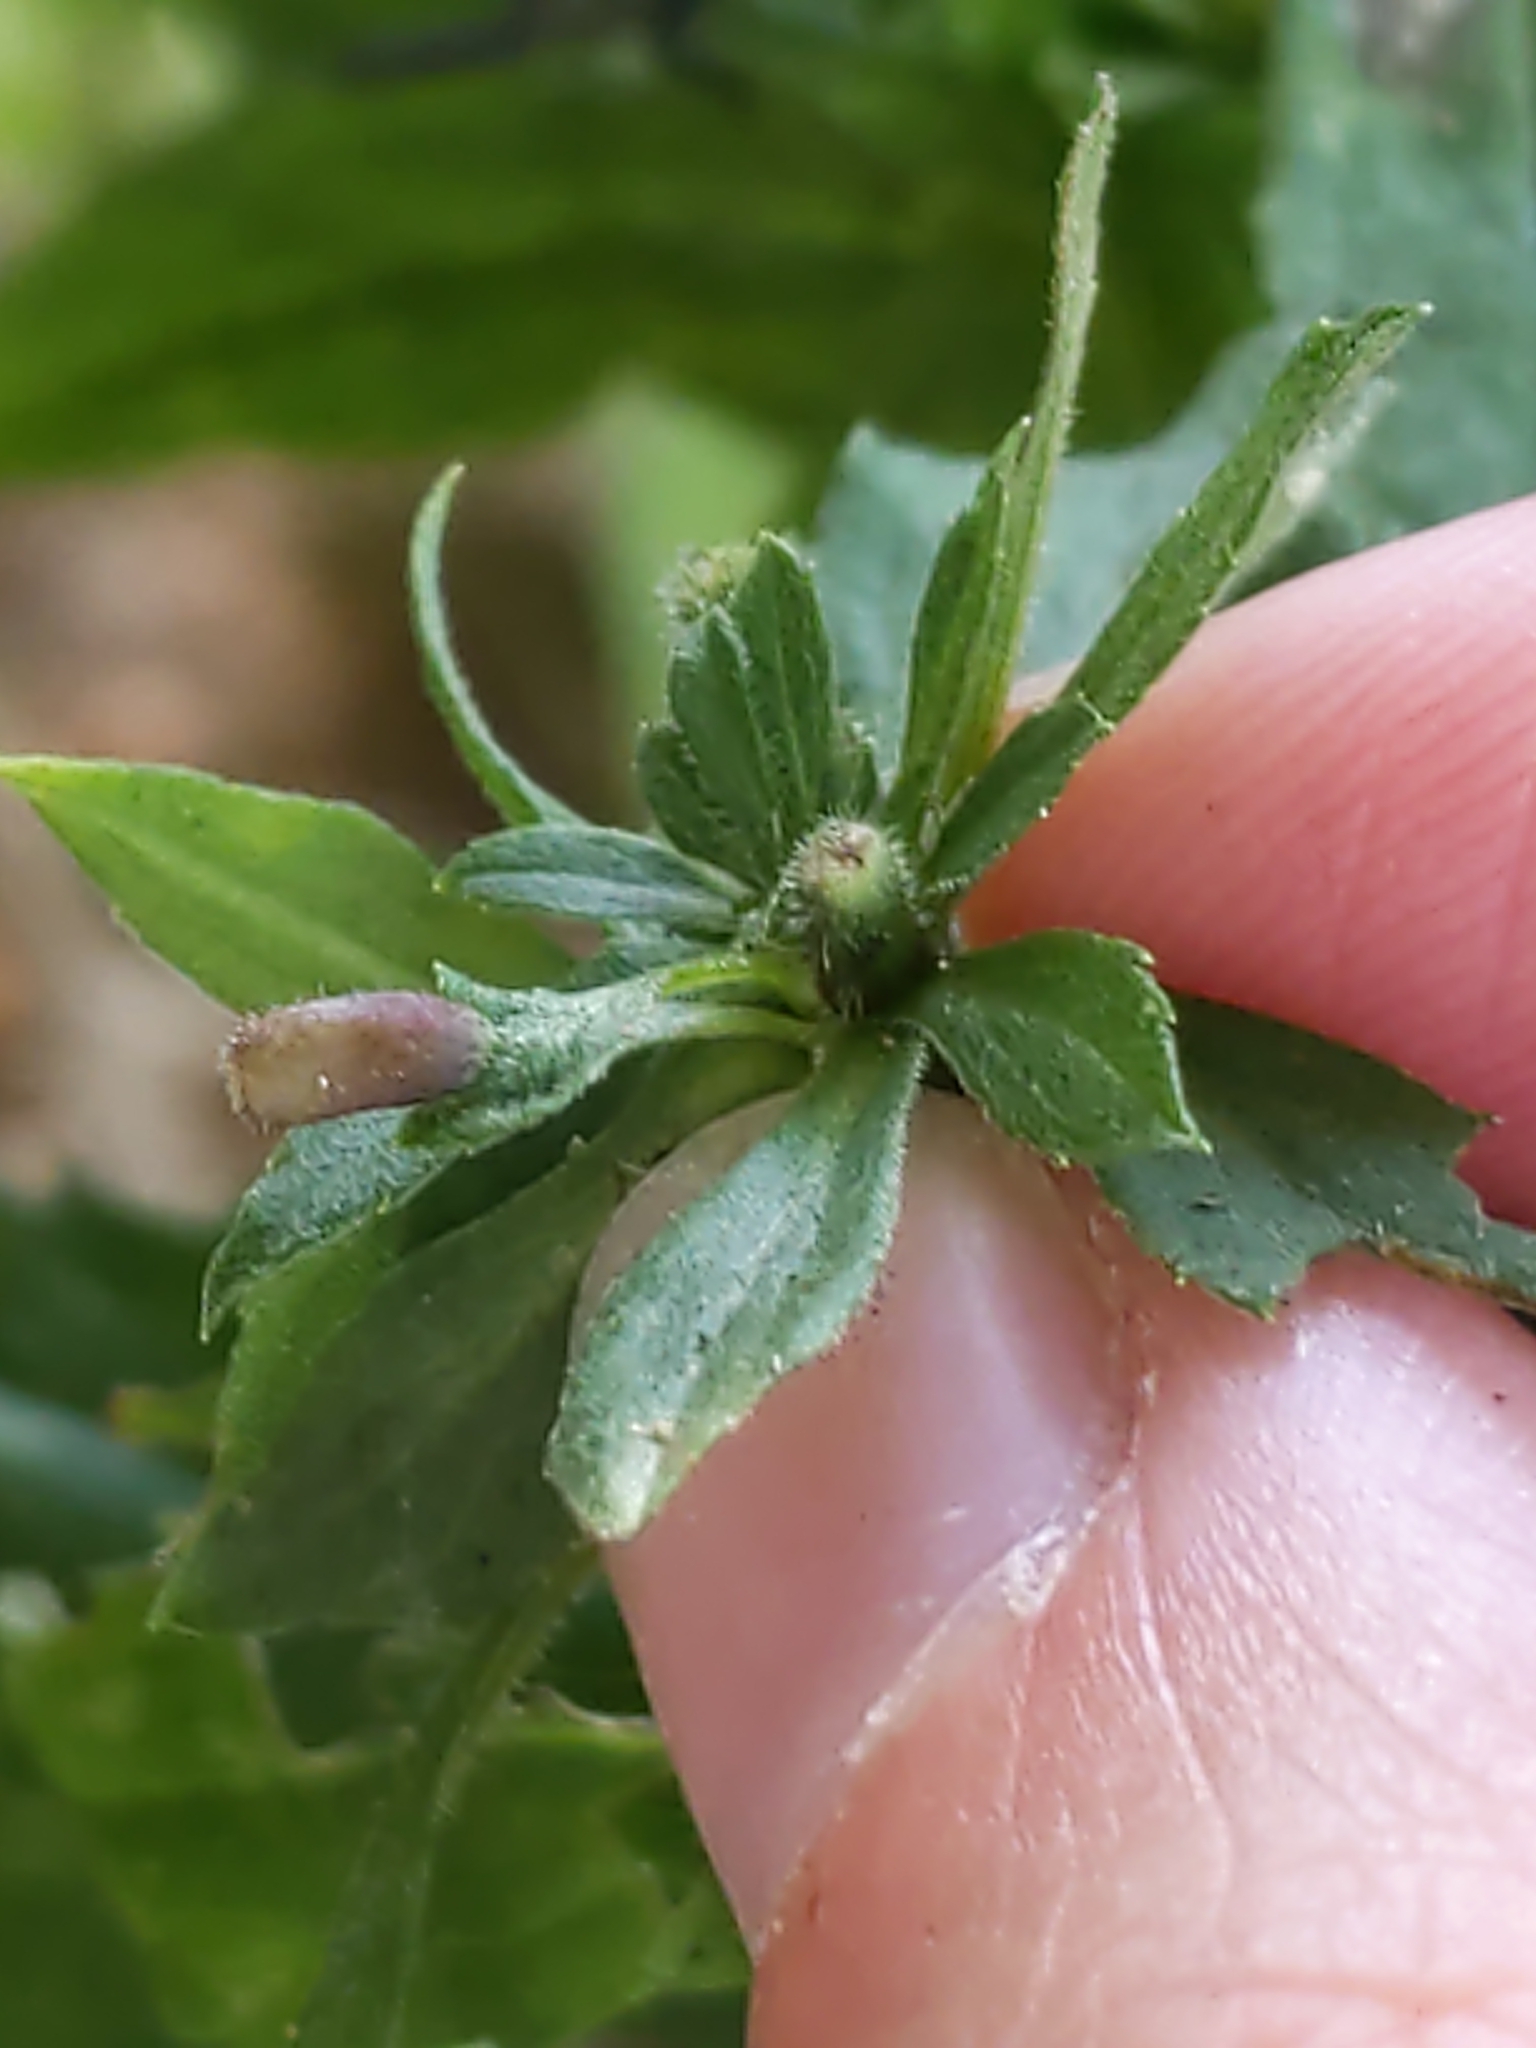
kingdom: Animalia
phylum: Arthropoda
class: Insecta
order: Diptera
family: Cecidomyiidae
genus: Rhopalomyia
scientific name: Rhopalomyia anthophila
